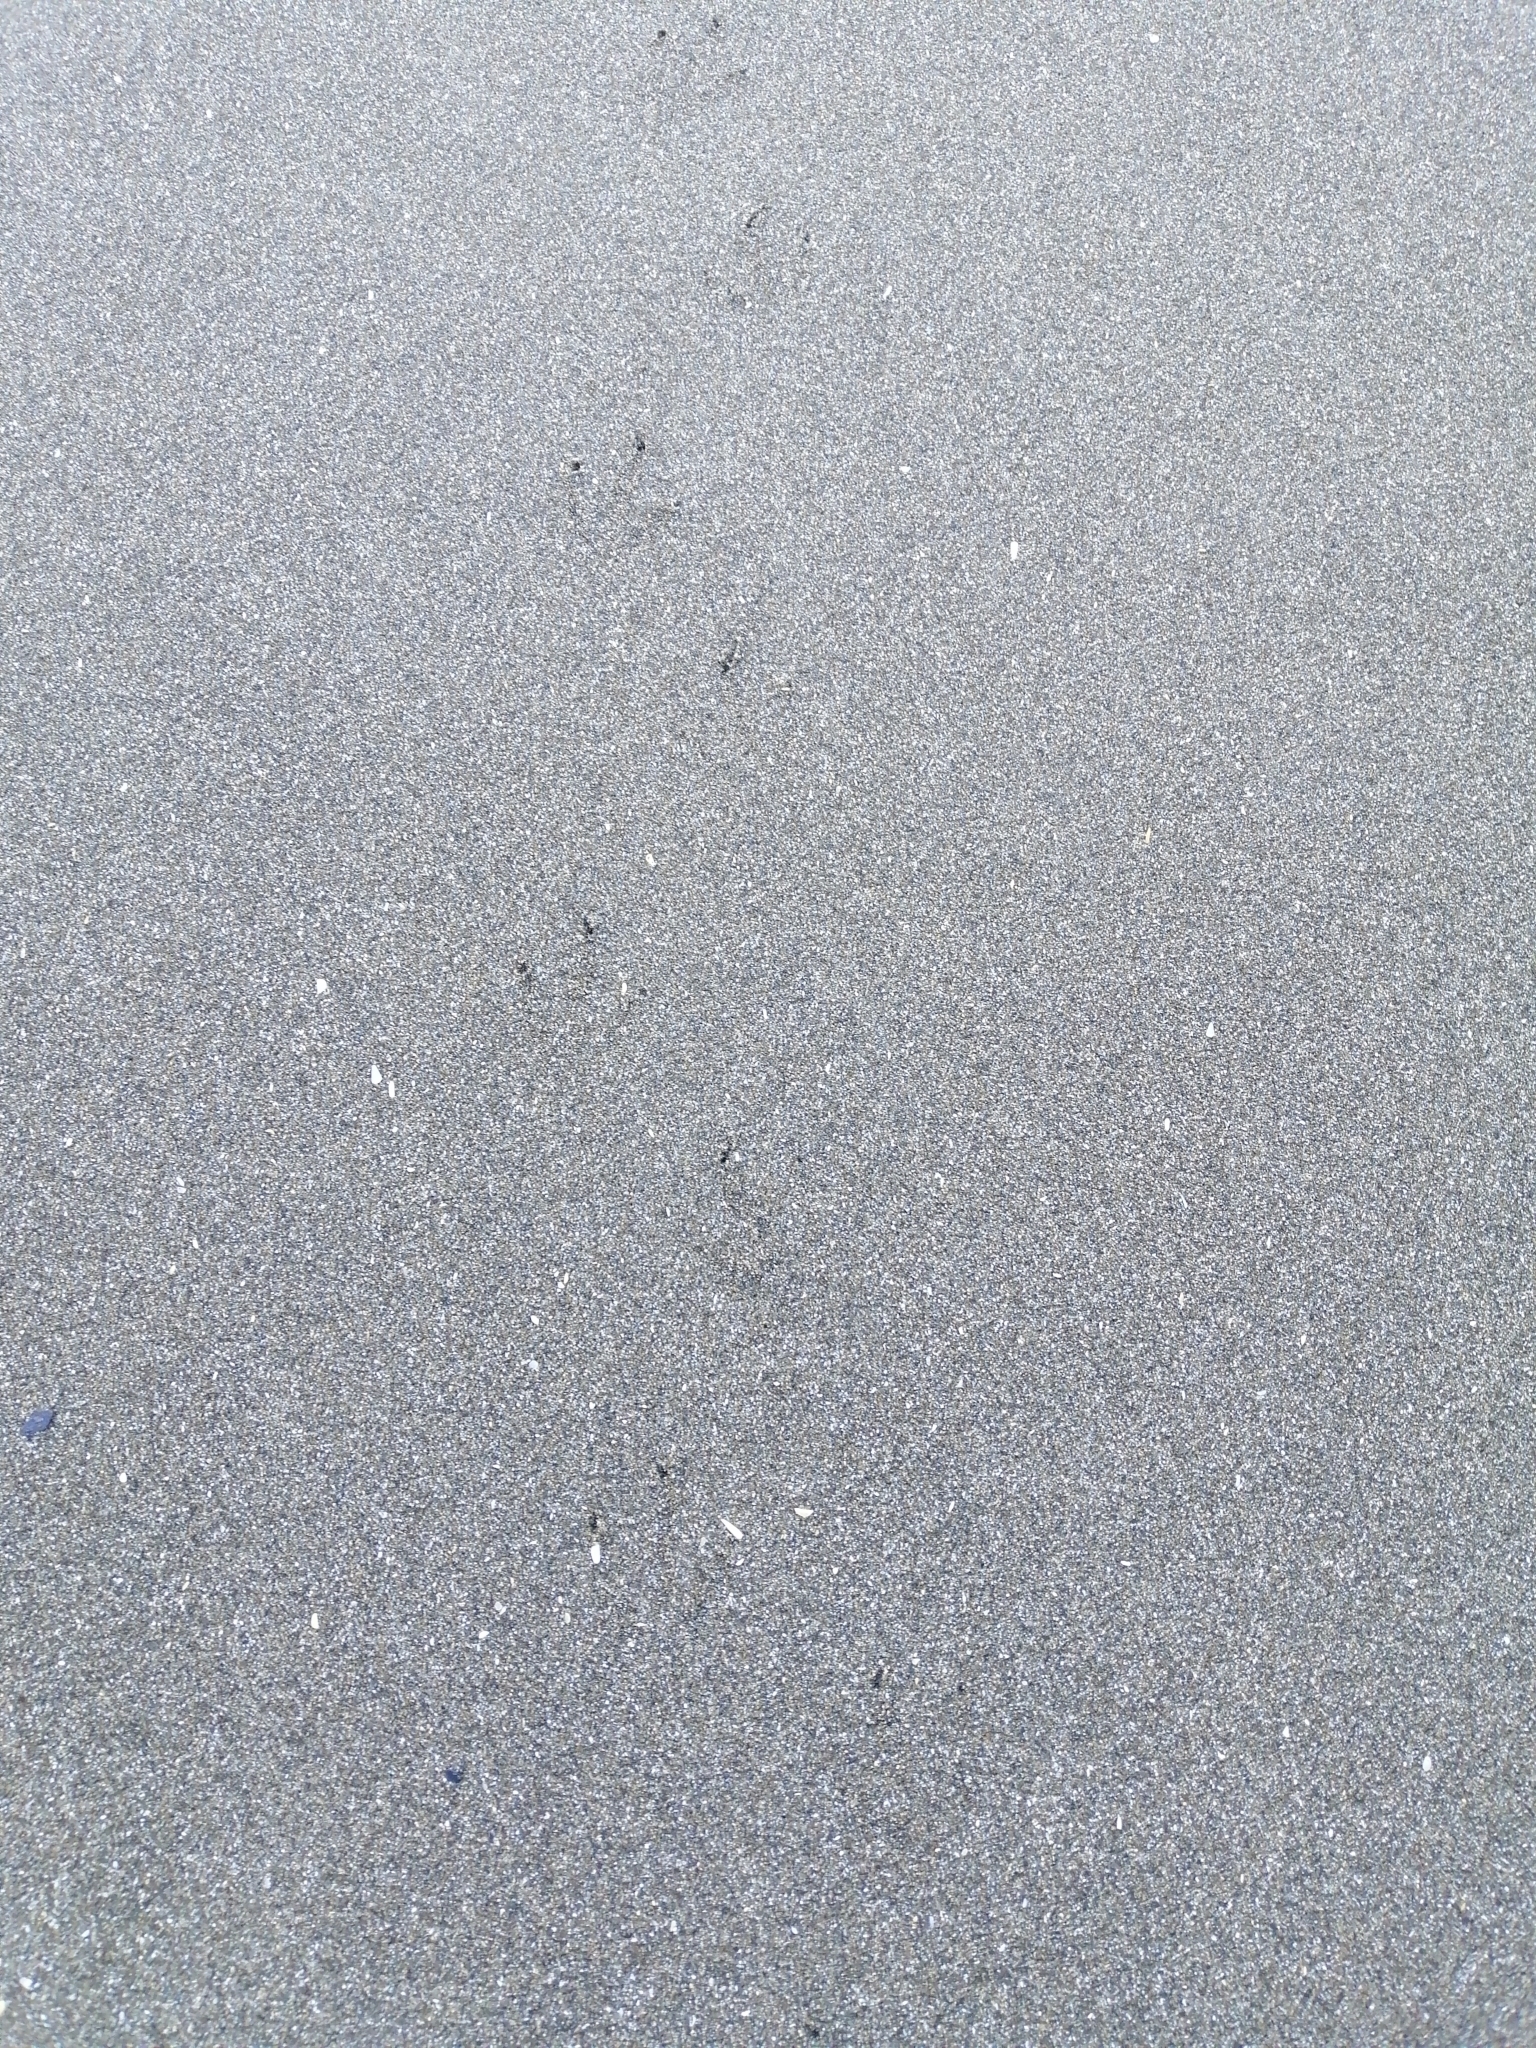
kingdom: Animalia
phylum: Chordata
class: Aves
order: Sphenisciformes
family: Spheniscidae
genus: Eudyptula
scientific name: Eudyptula minor
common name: Little penguin
